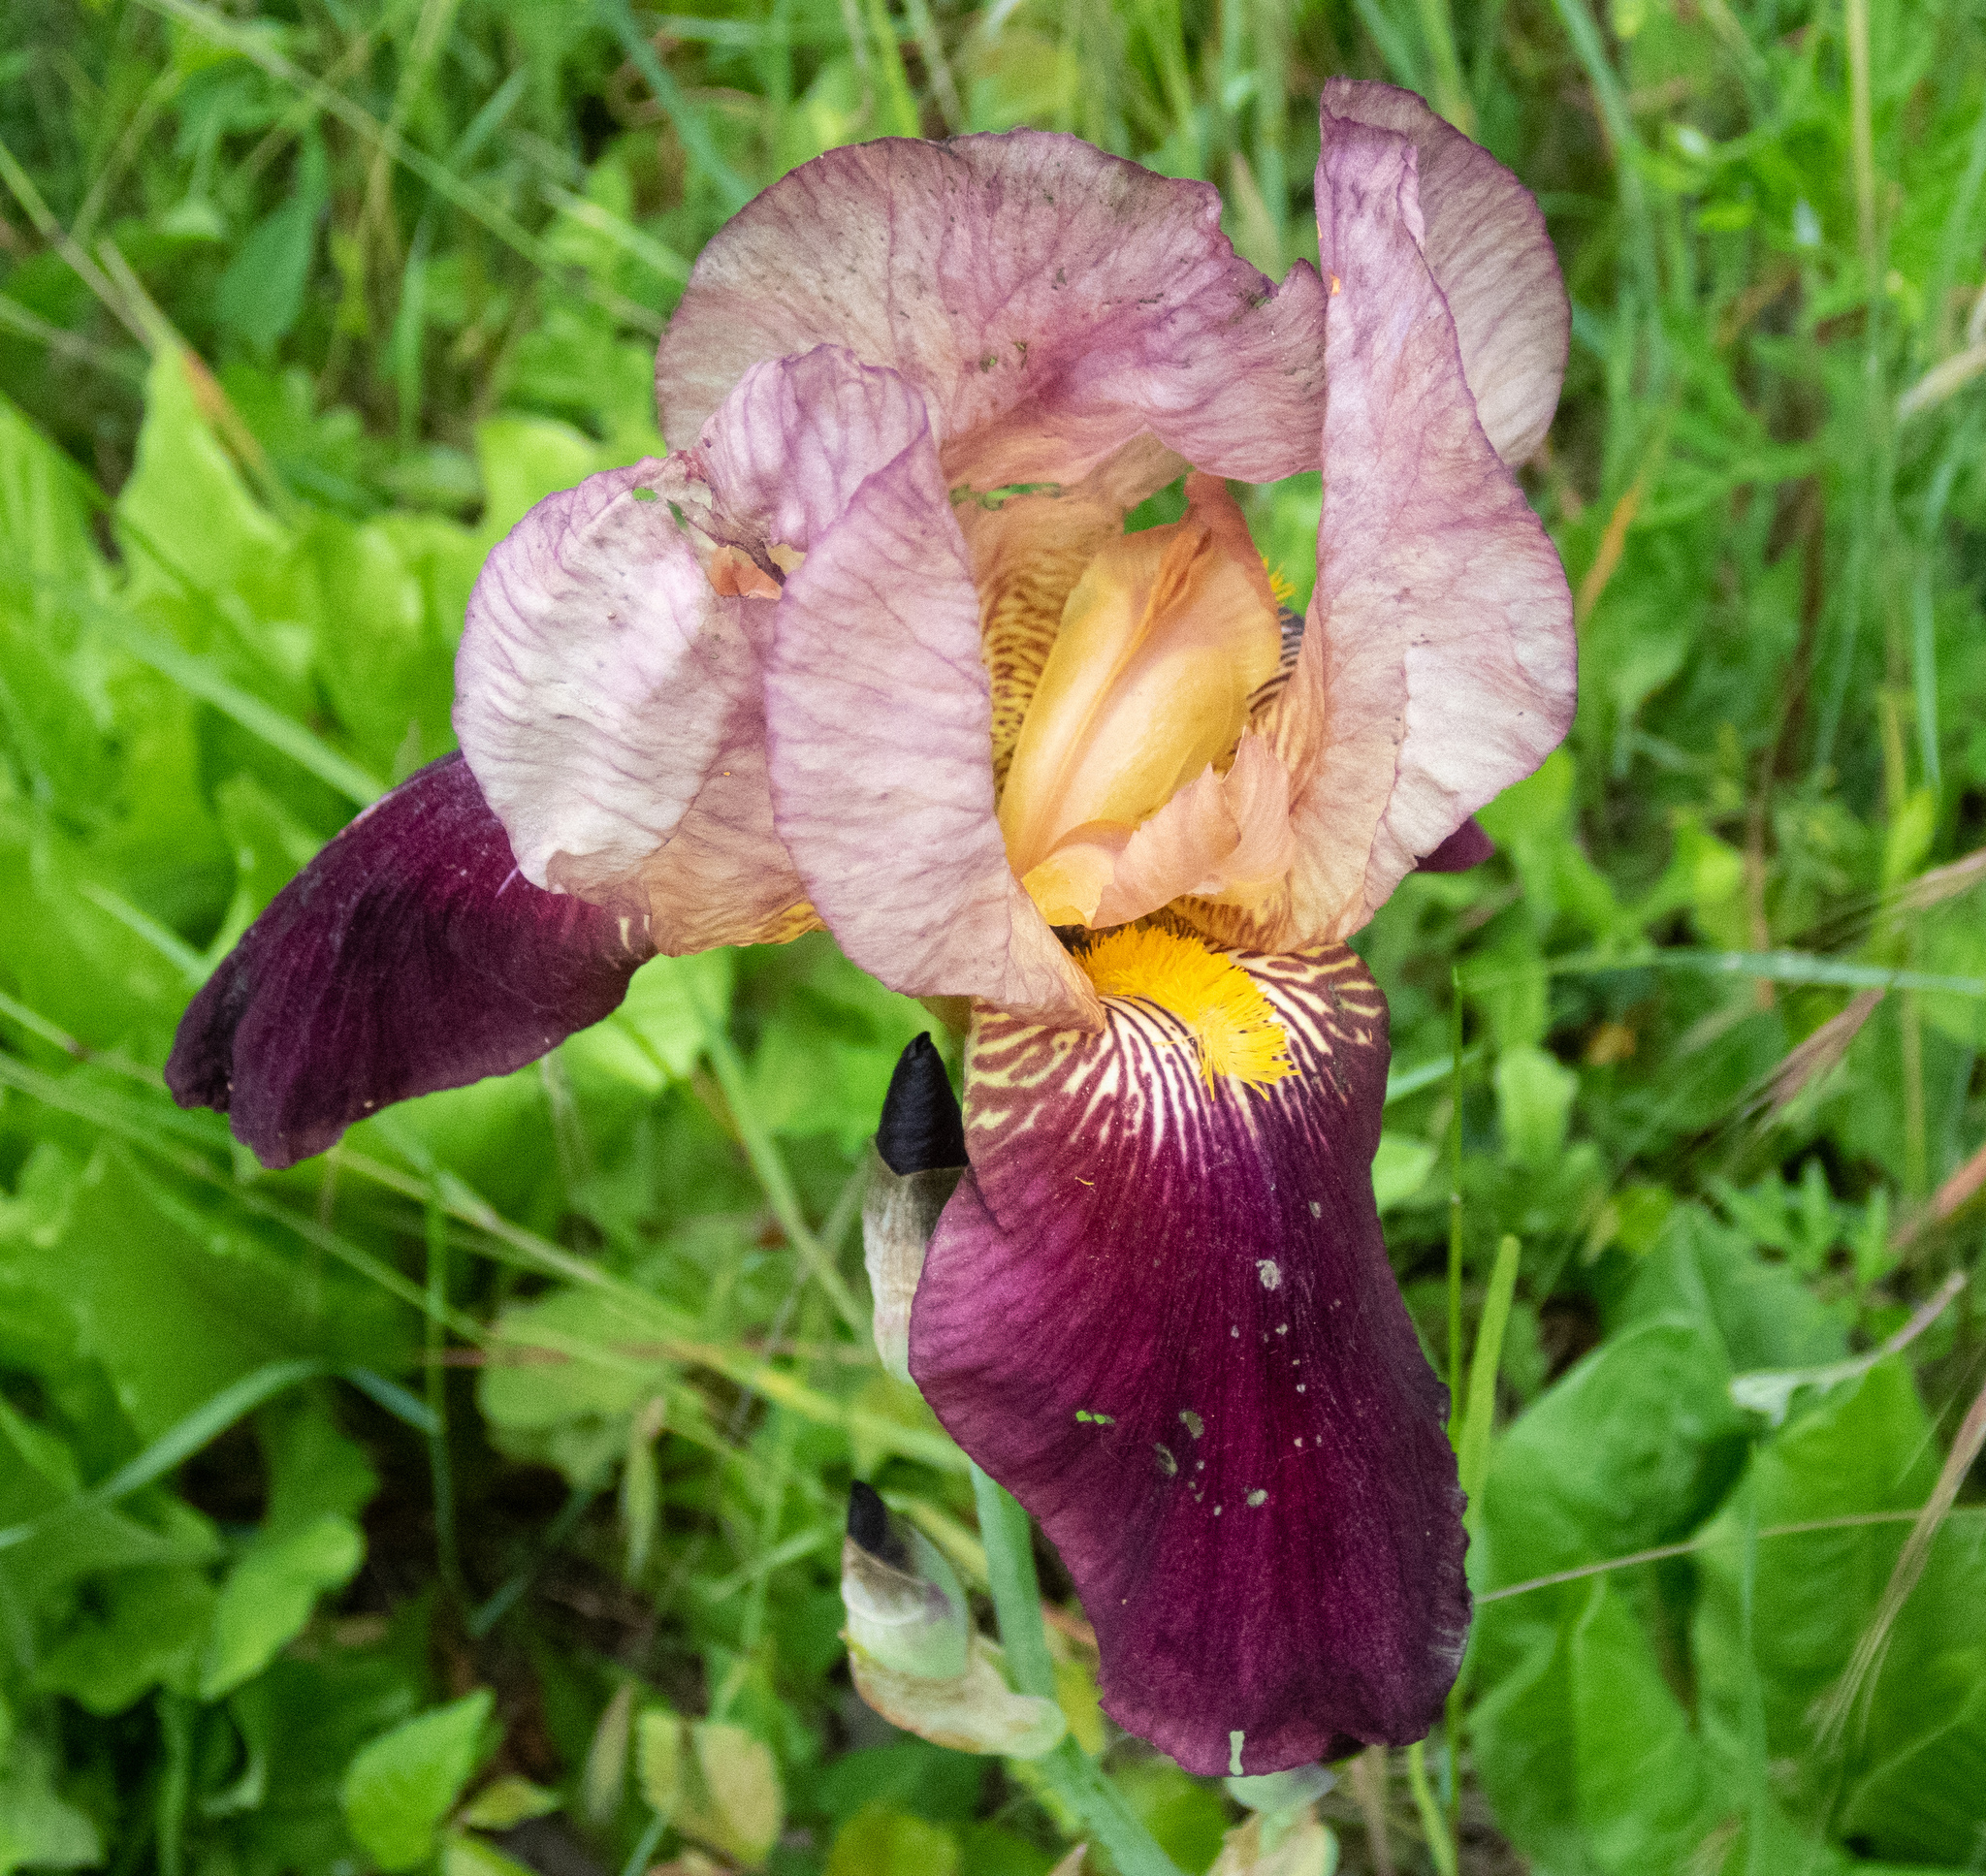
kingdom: Plantae
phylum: Tracheophyta
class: Liliopsida
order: Asparagales
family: Iridaceae
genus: Iris
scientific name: Iris hybrida
